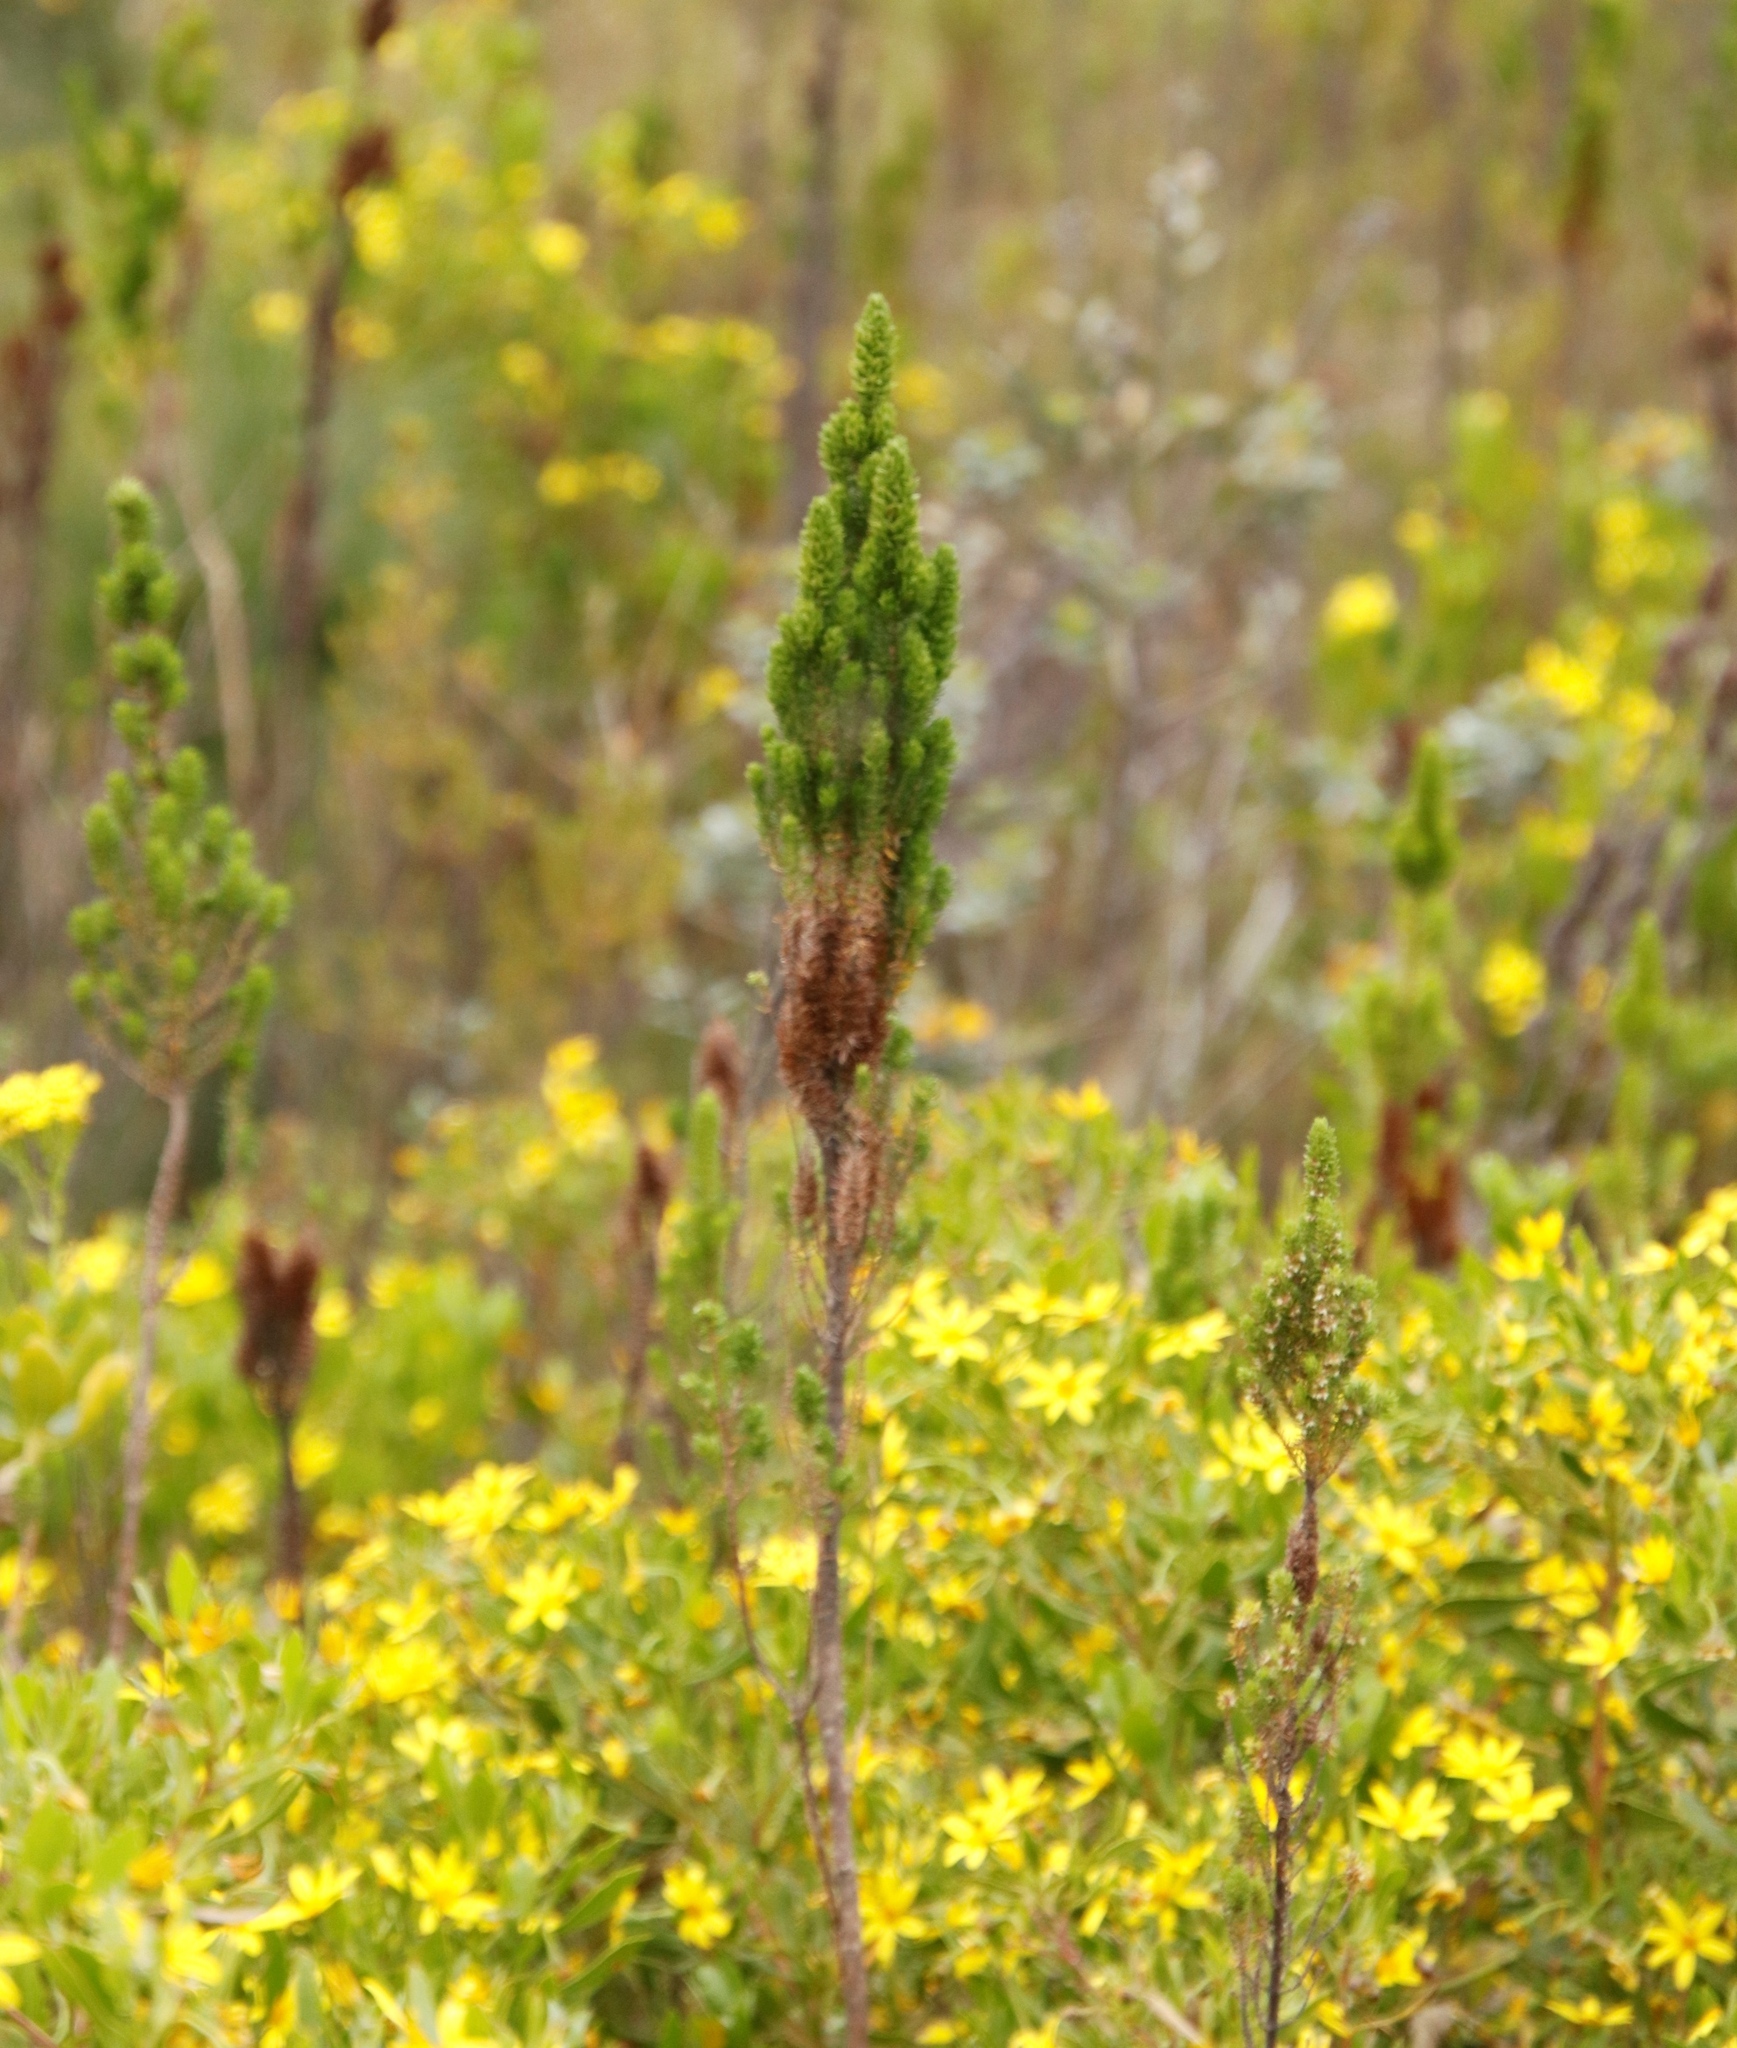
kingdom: Plantae
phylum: Tracheophyta
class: Magnoliopsida
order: Asterales
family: Asteraceae
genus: Osteospermum
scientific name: Osteospermum moniliferum
